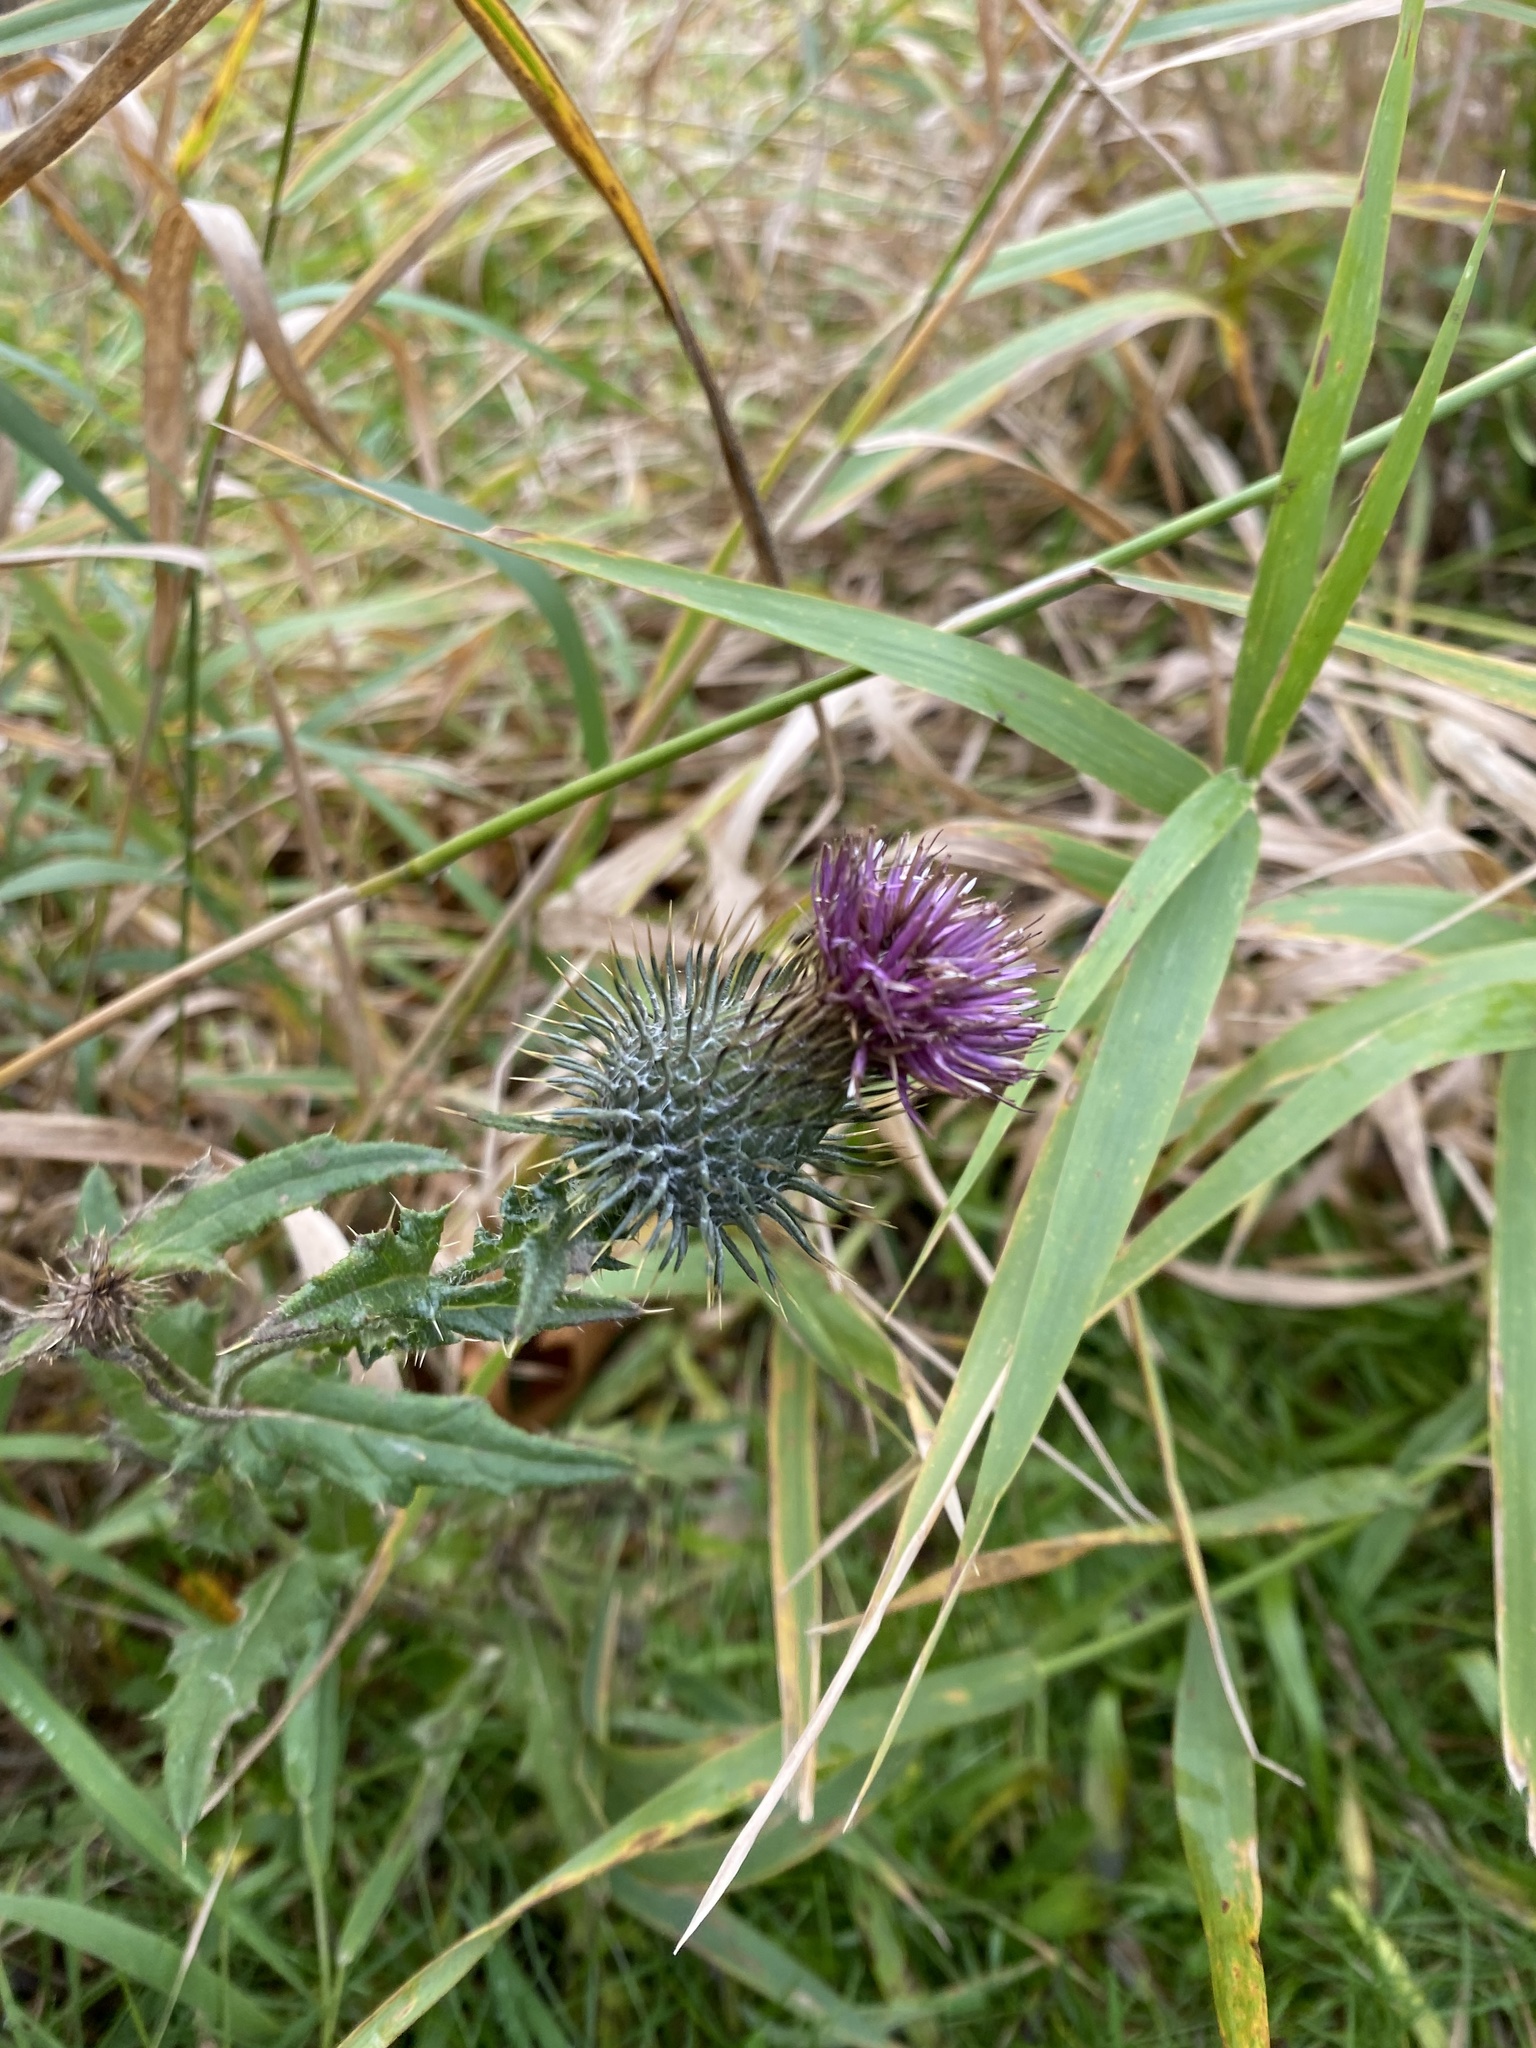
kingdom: Plantae
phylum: Tracheophyta
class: Magnoliopsida
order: Asterales
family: Asteraceae
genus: Cirsium
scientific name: Cirsium vulgare
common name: Bull thistle
